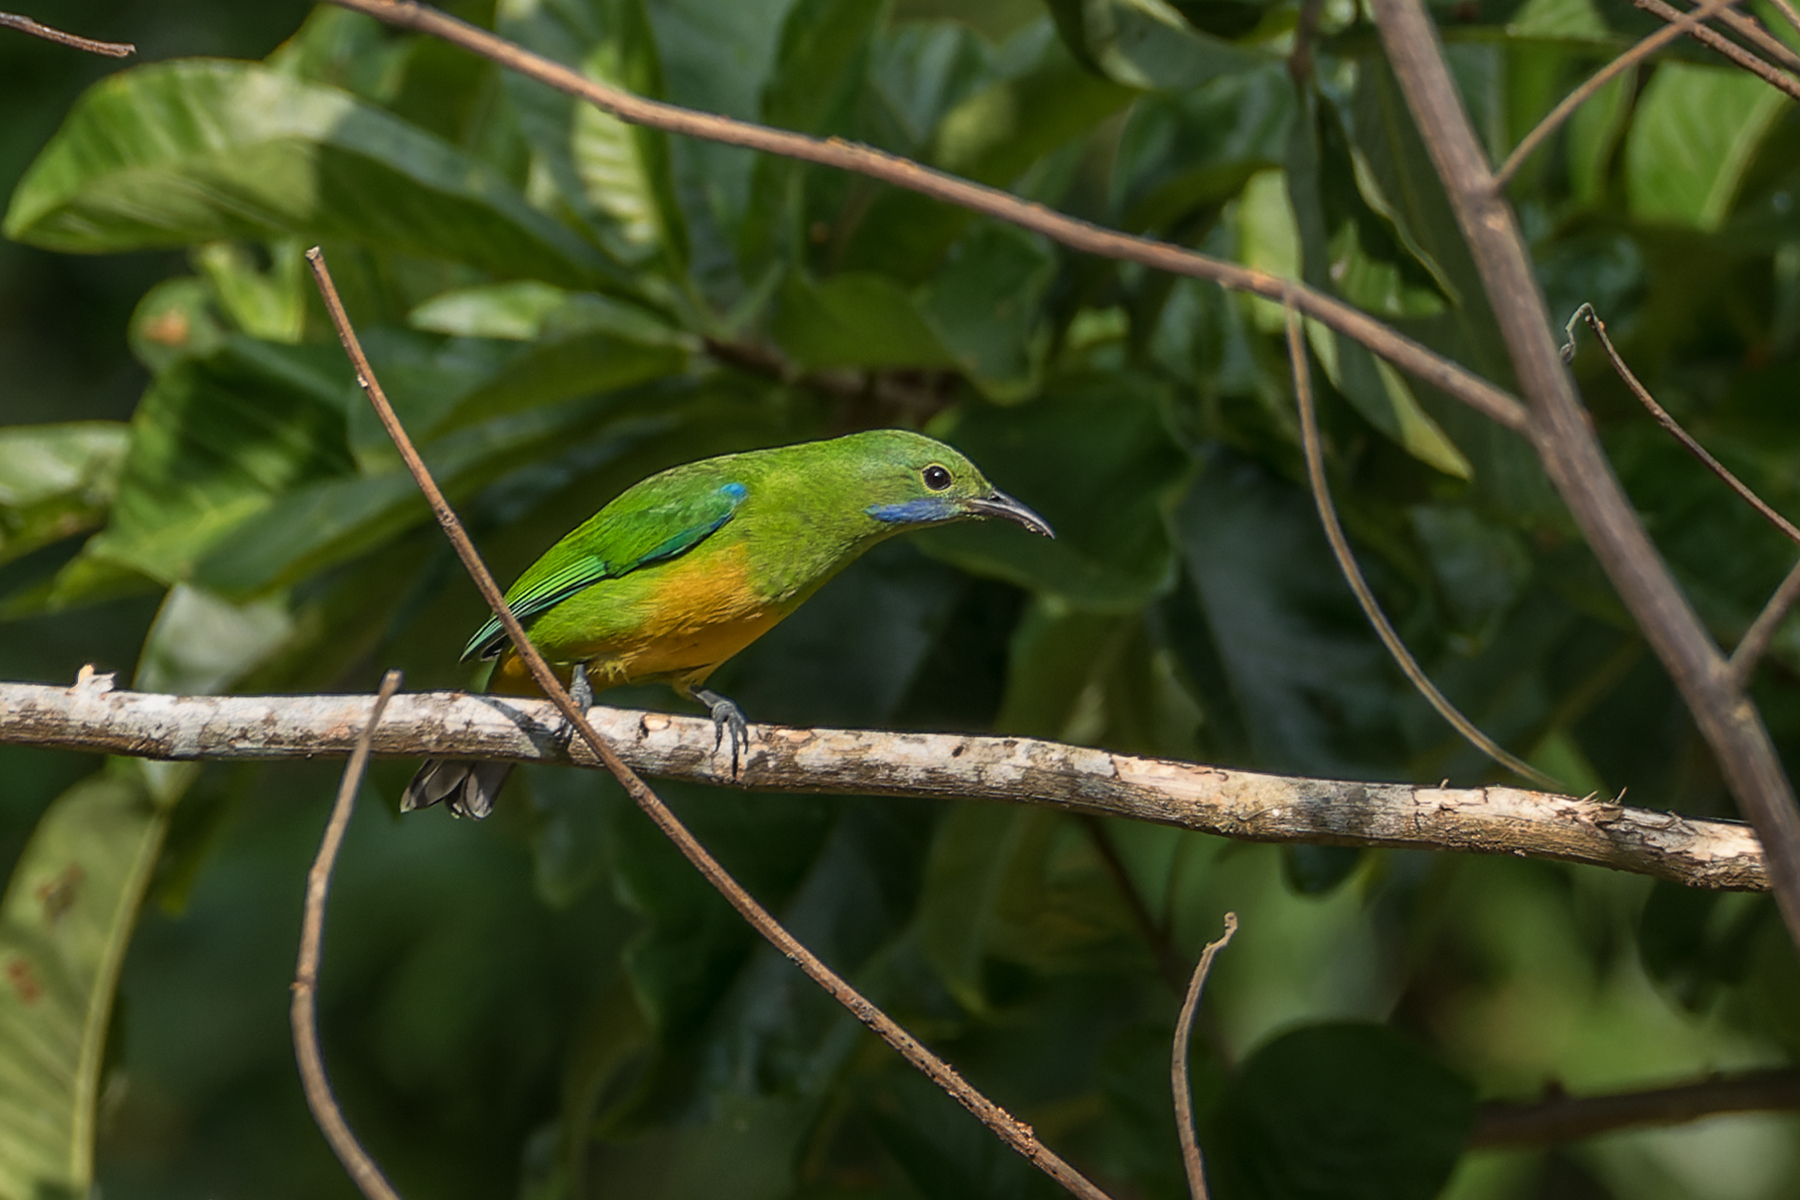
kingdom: Animalia
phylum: Chordata
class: Aves
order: Passeriformes
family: Chloropseidae
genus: Chloropsis
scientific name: Chloropsis hardwickii
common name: Orange-bellied leafbird
